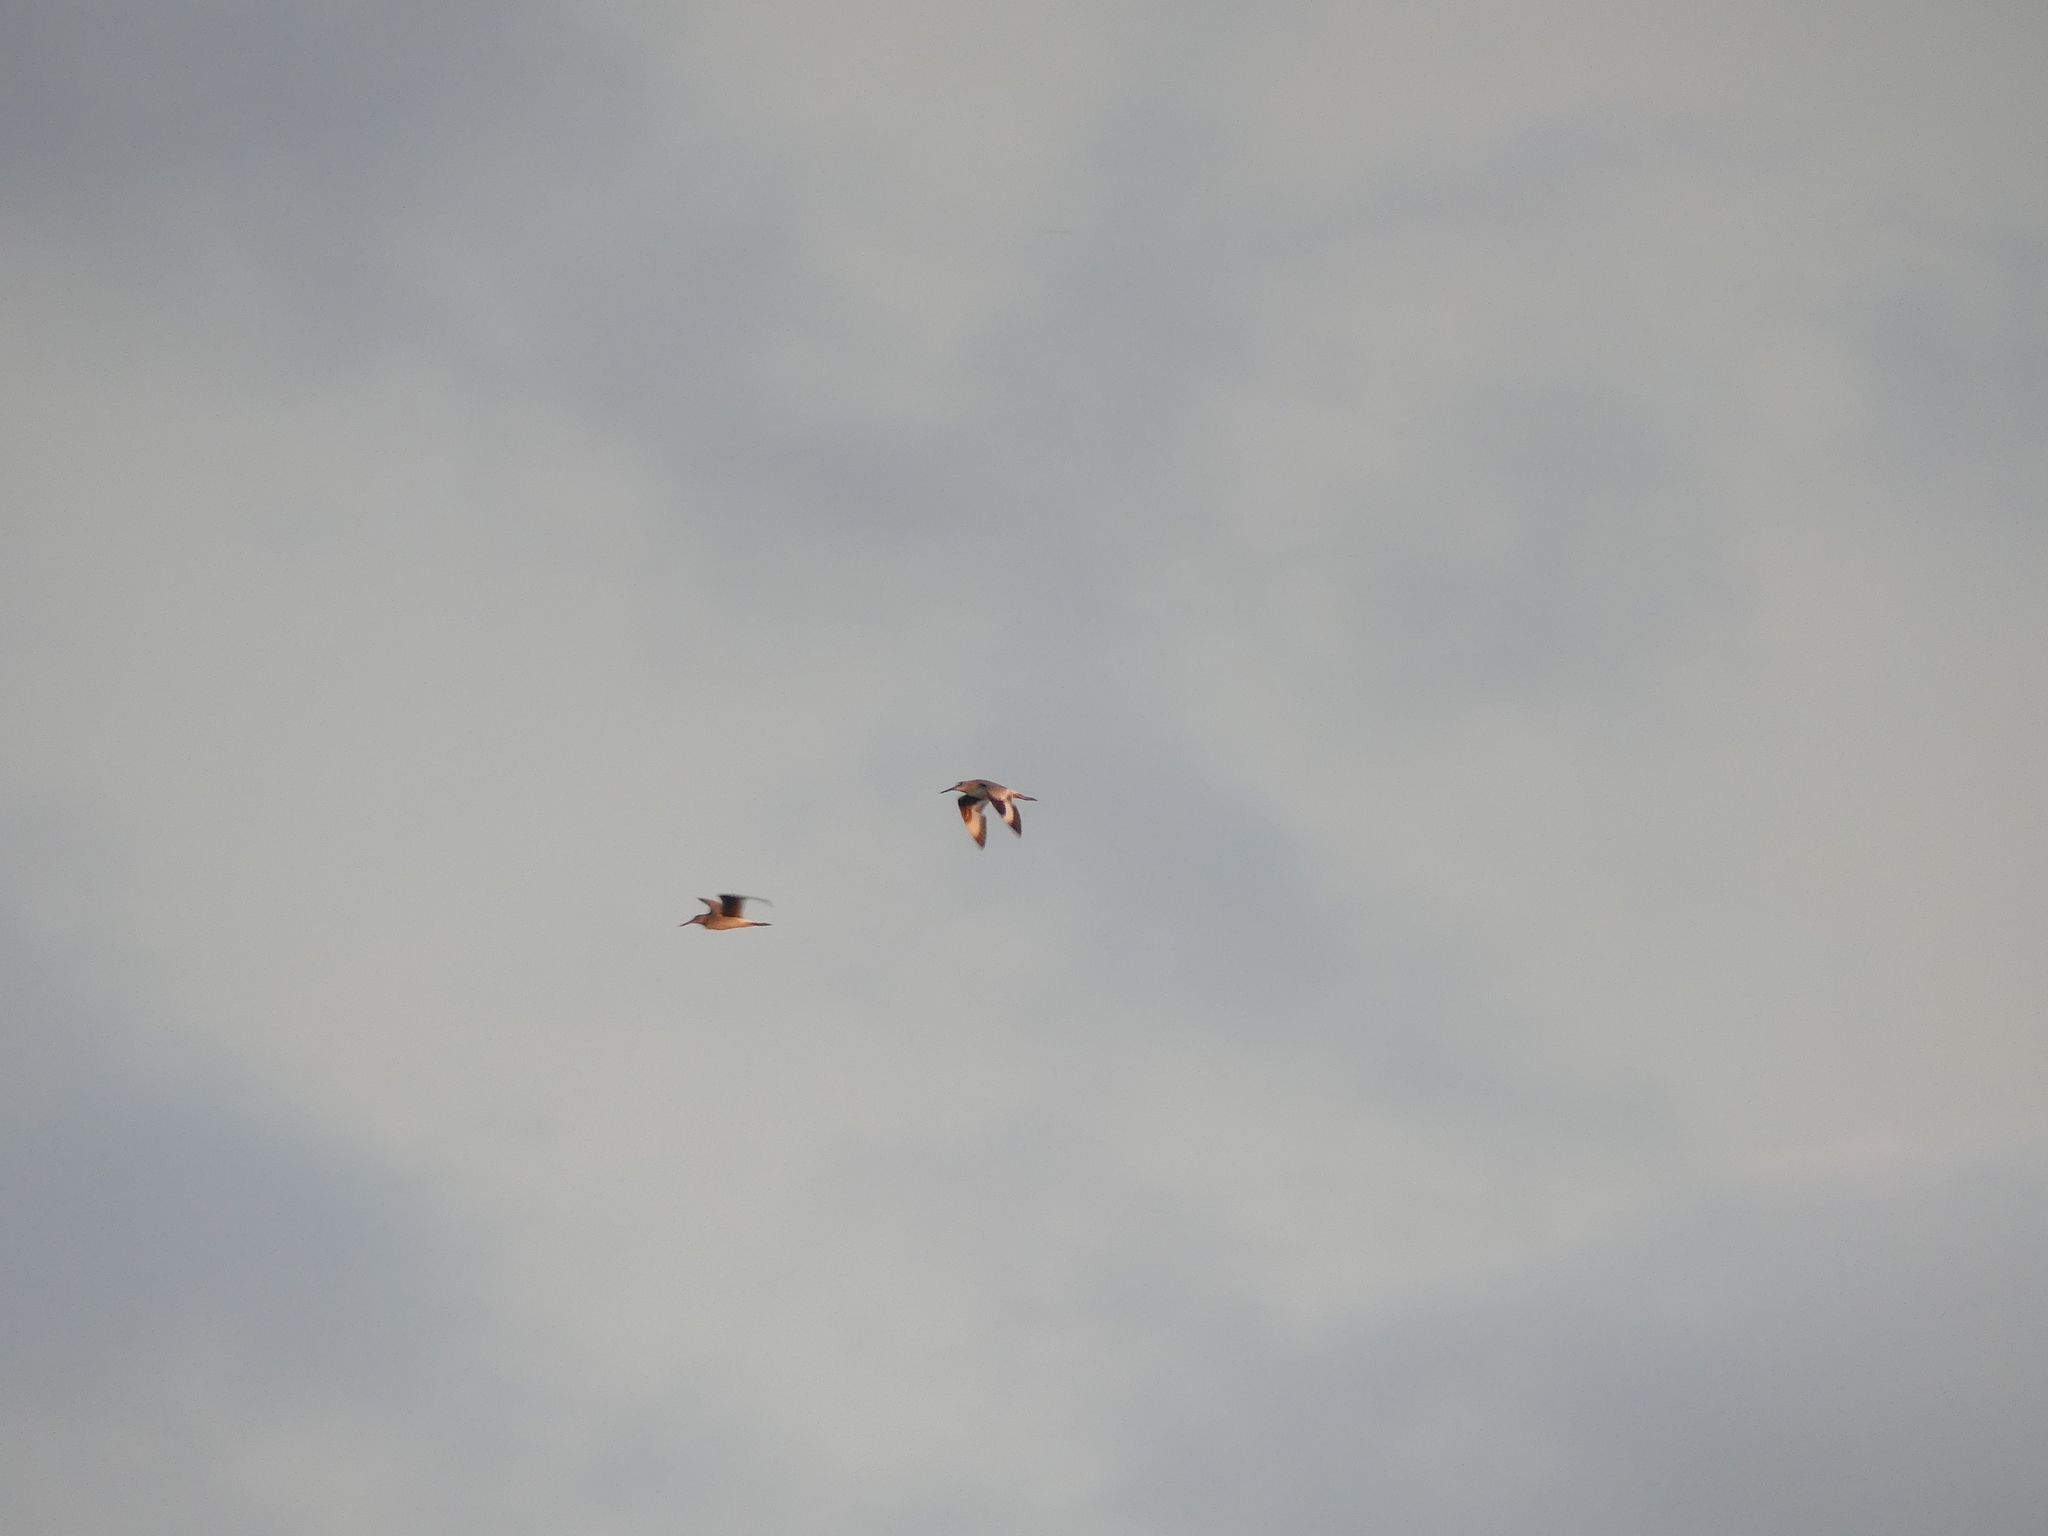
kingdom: Animalia
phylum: Chordata
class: Aves
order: Charadriiformes
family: Scolopacidae
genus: Tringa
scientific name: Tringa semipalmata
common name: Willet
